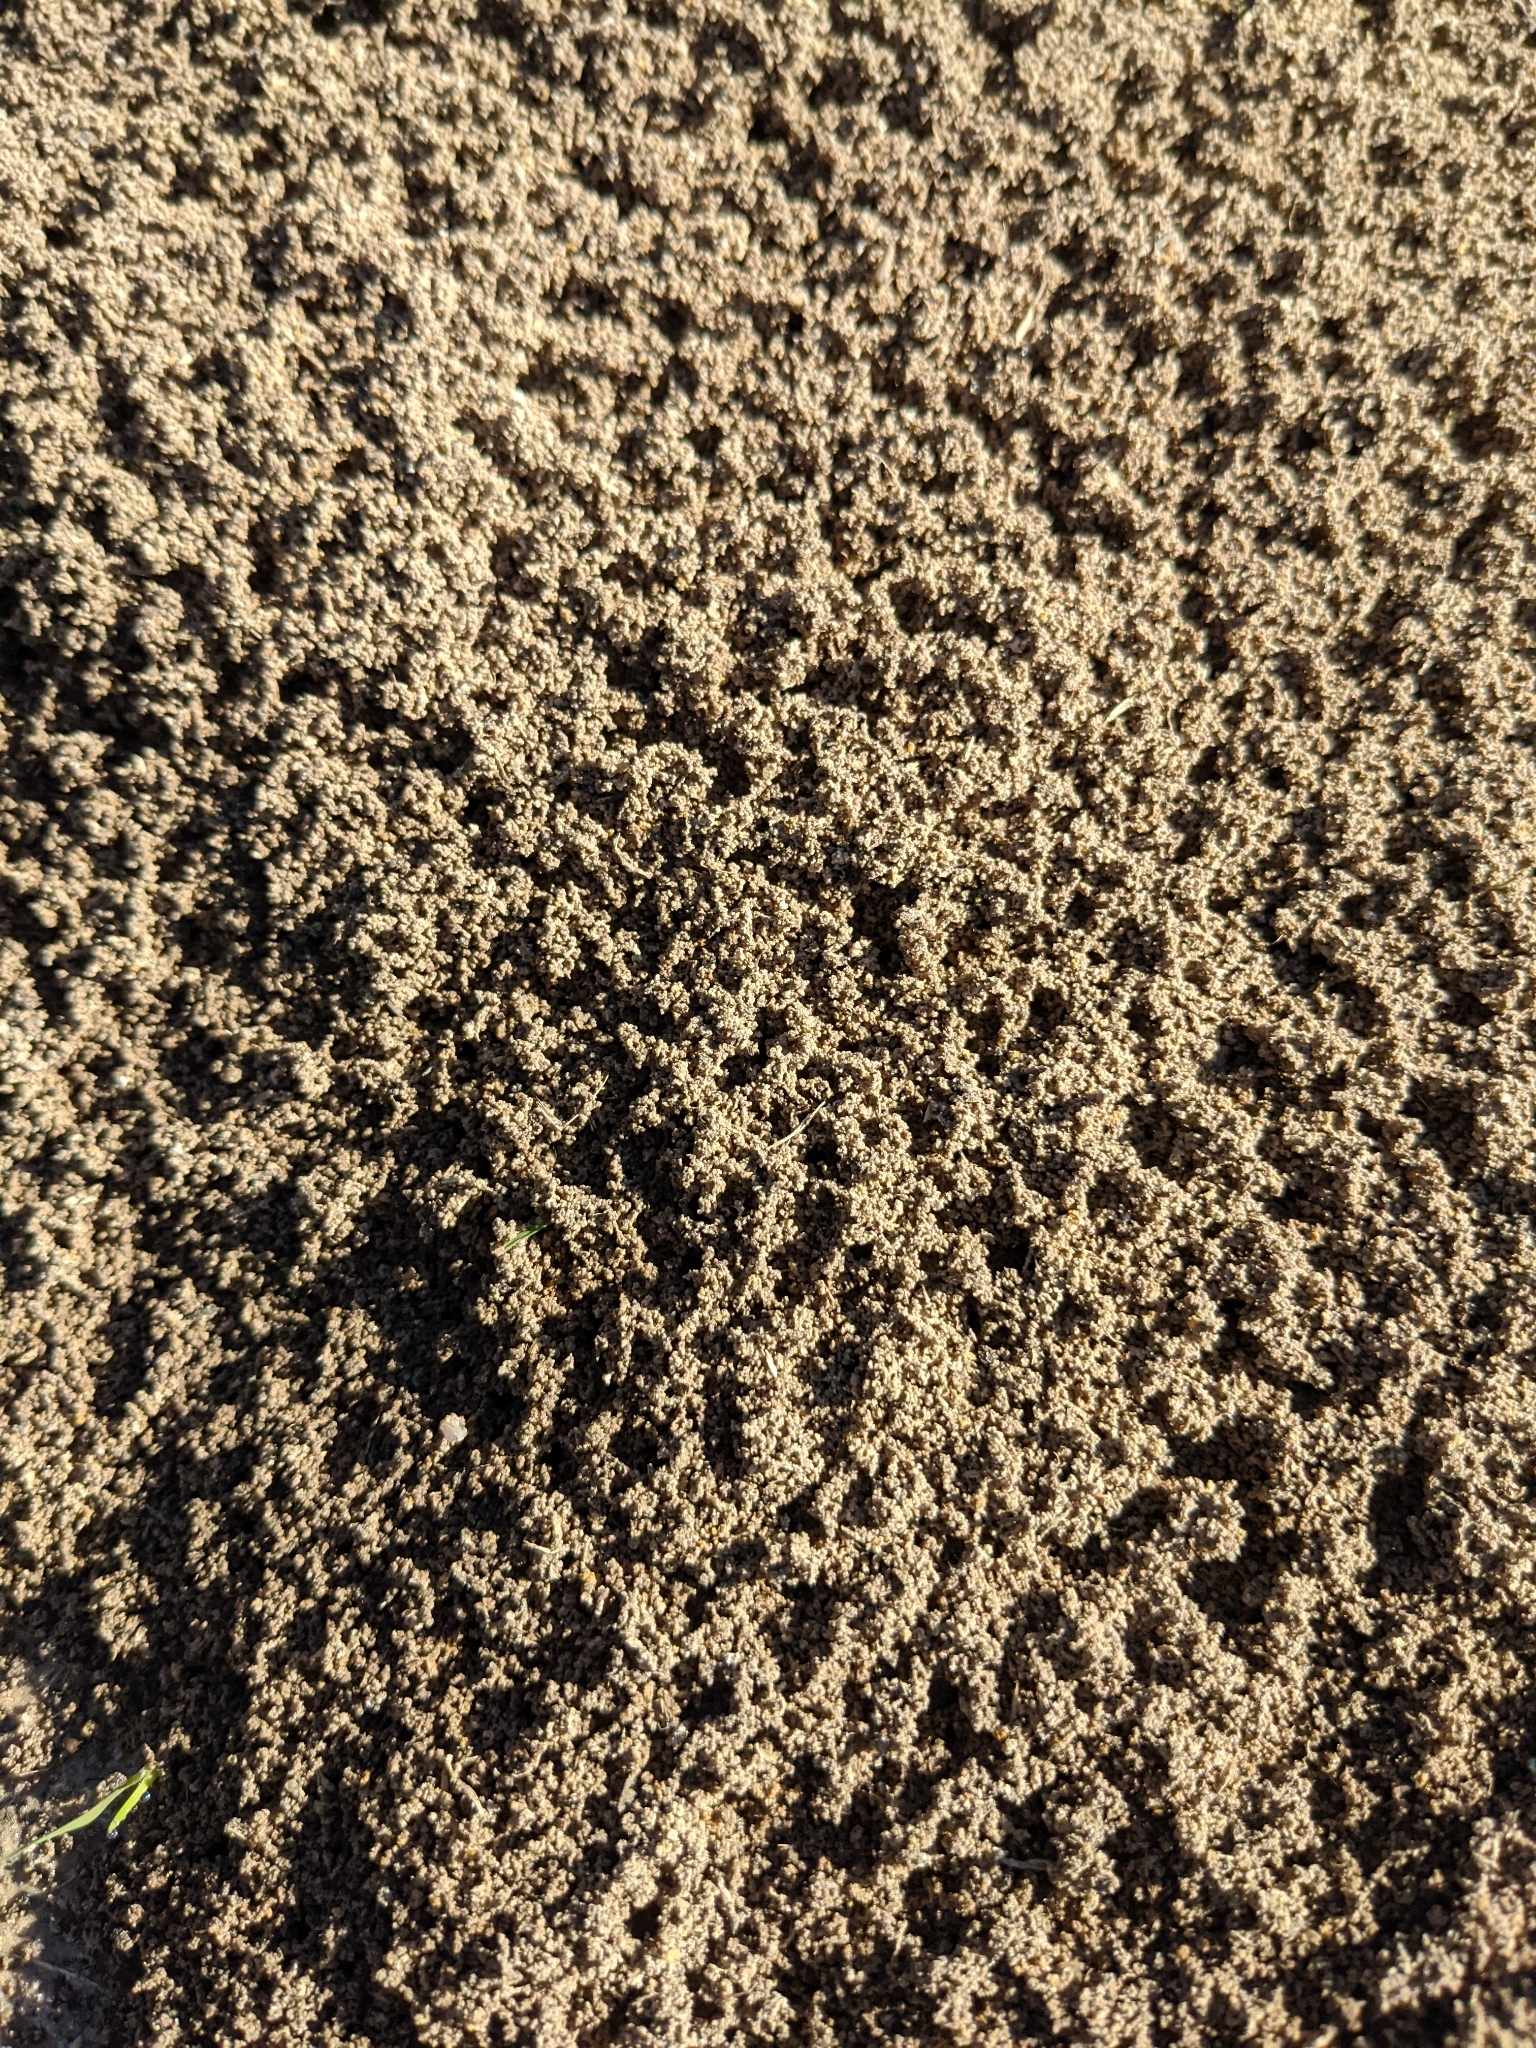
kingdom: Animalia
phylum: Arthropoda
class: Insecta
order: Hymenoptera
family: Formicidae
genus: Solenopsis
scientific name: Solenopsis invicta
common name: Red imported fire ant
